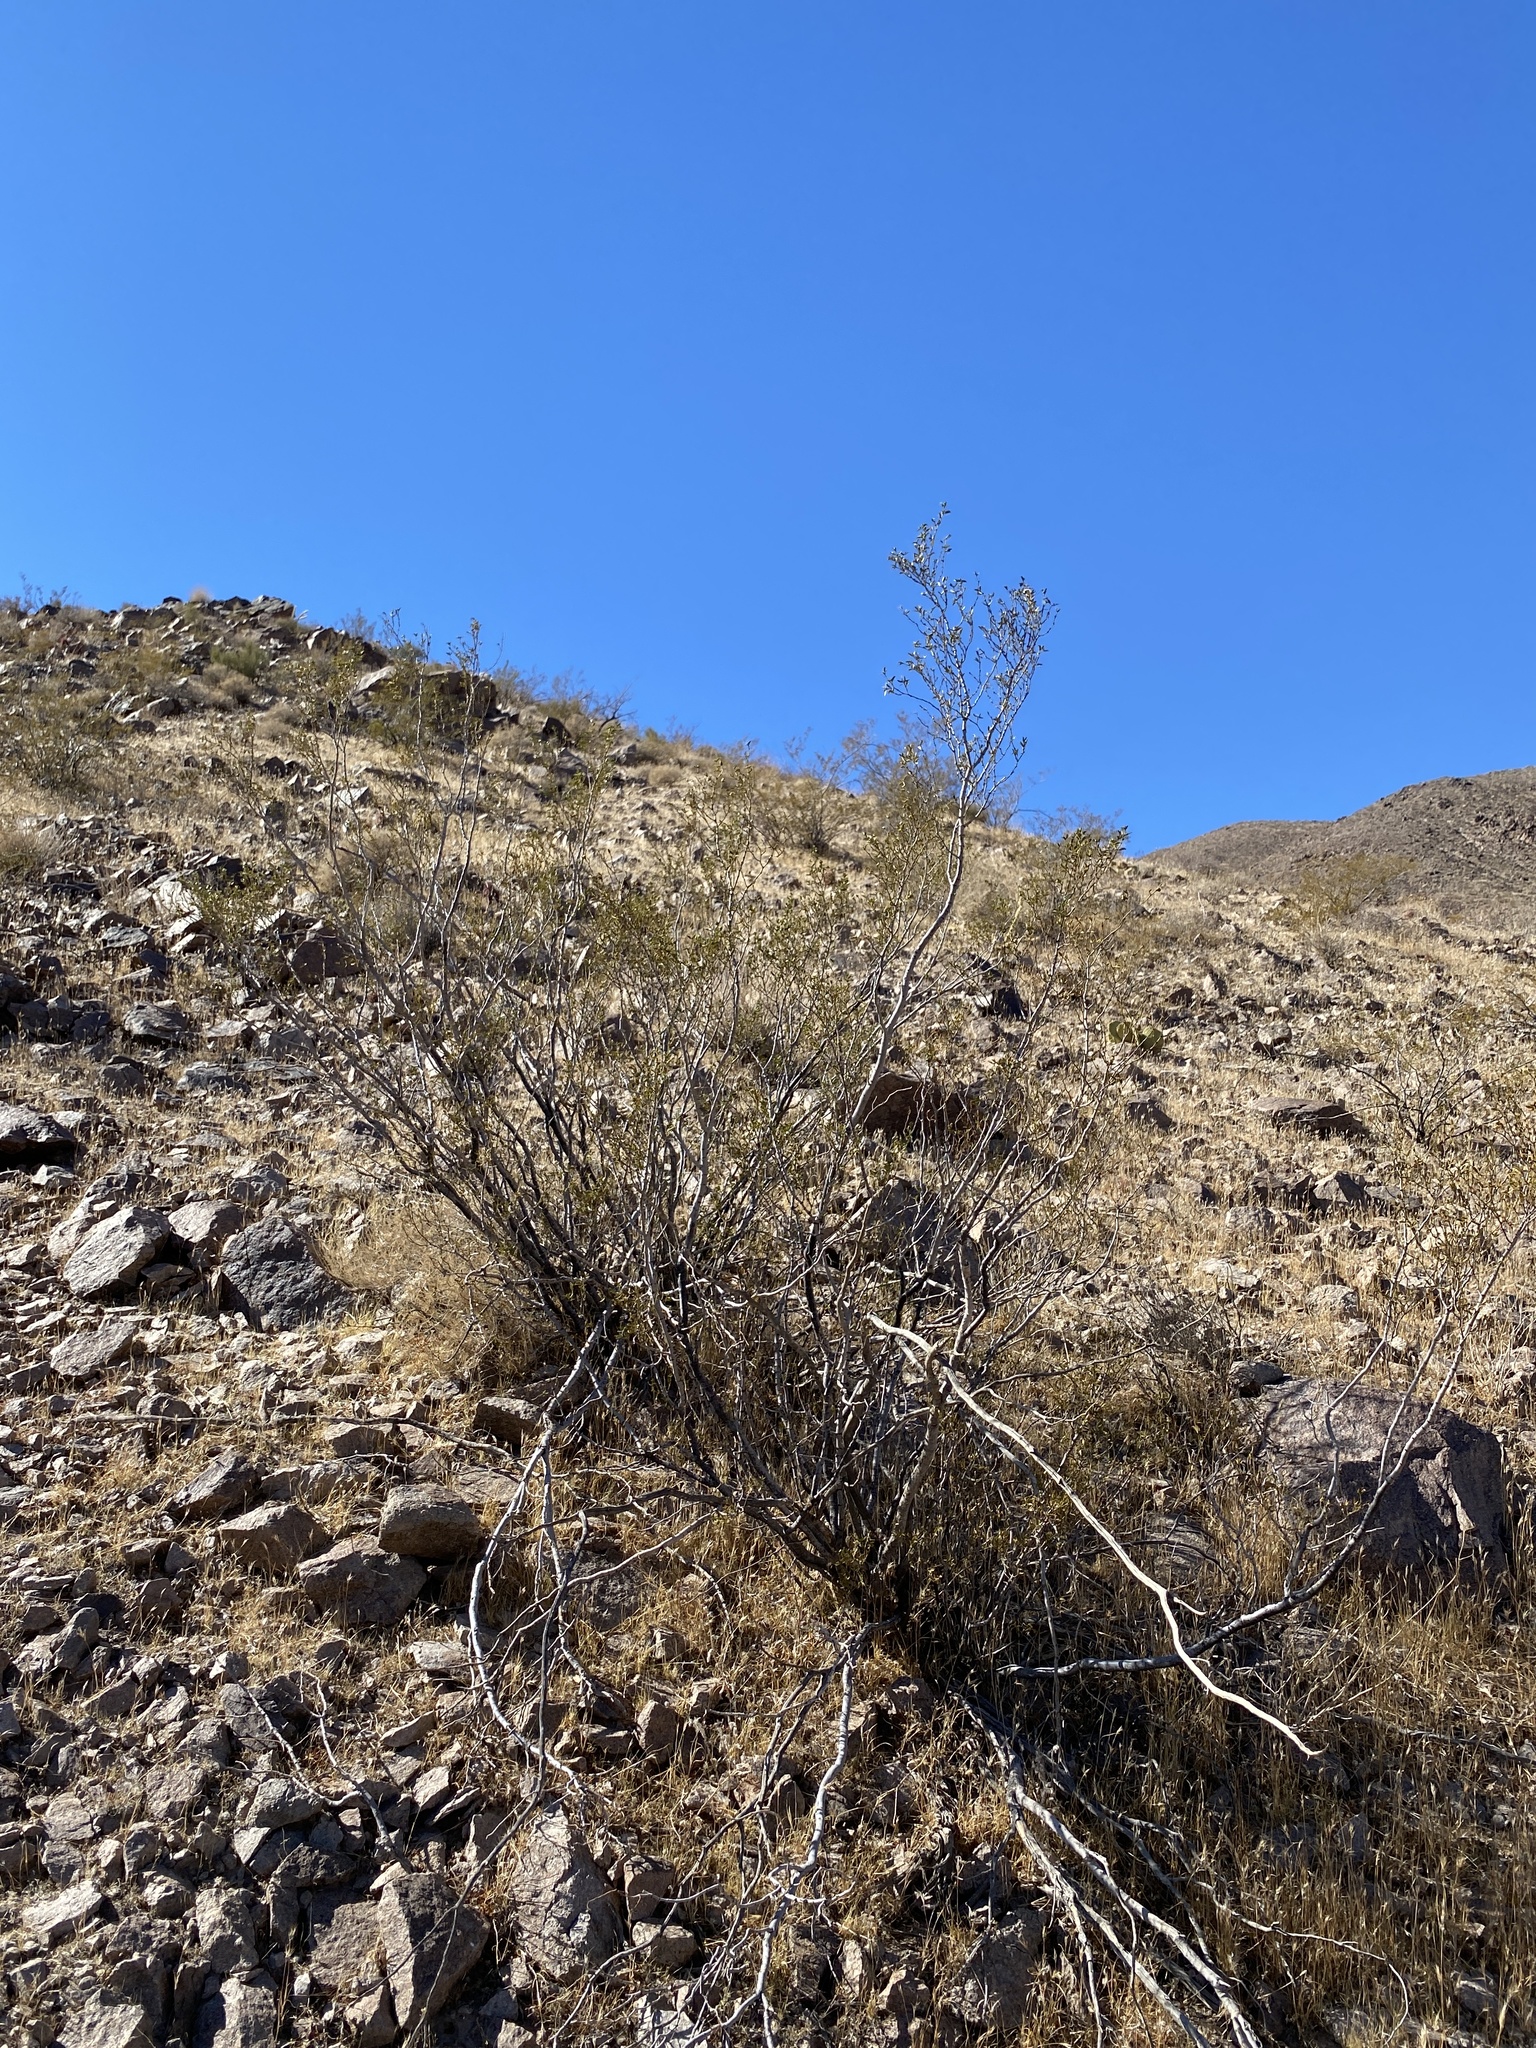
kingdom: Plantae
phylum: Tracheophyta
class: Magnoliopsida
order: Zygophyllales
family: Zygophyllaceae
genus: Larrea
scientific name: Larrea tridentata
